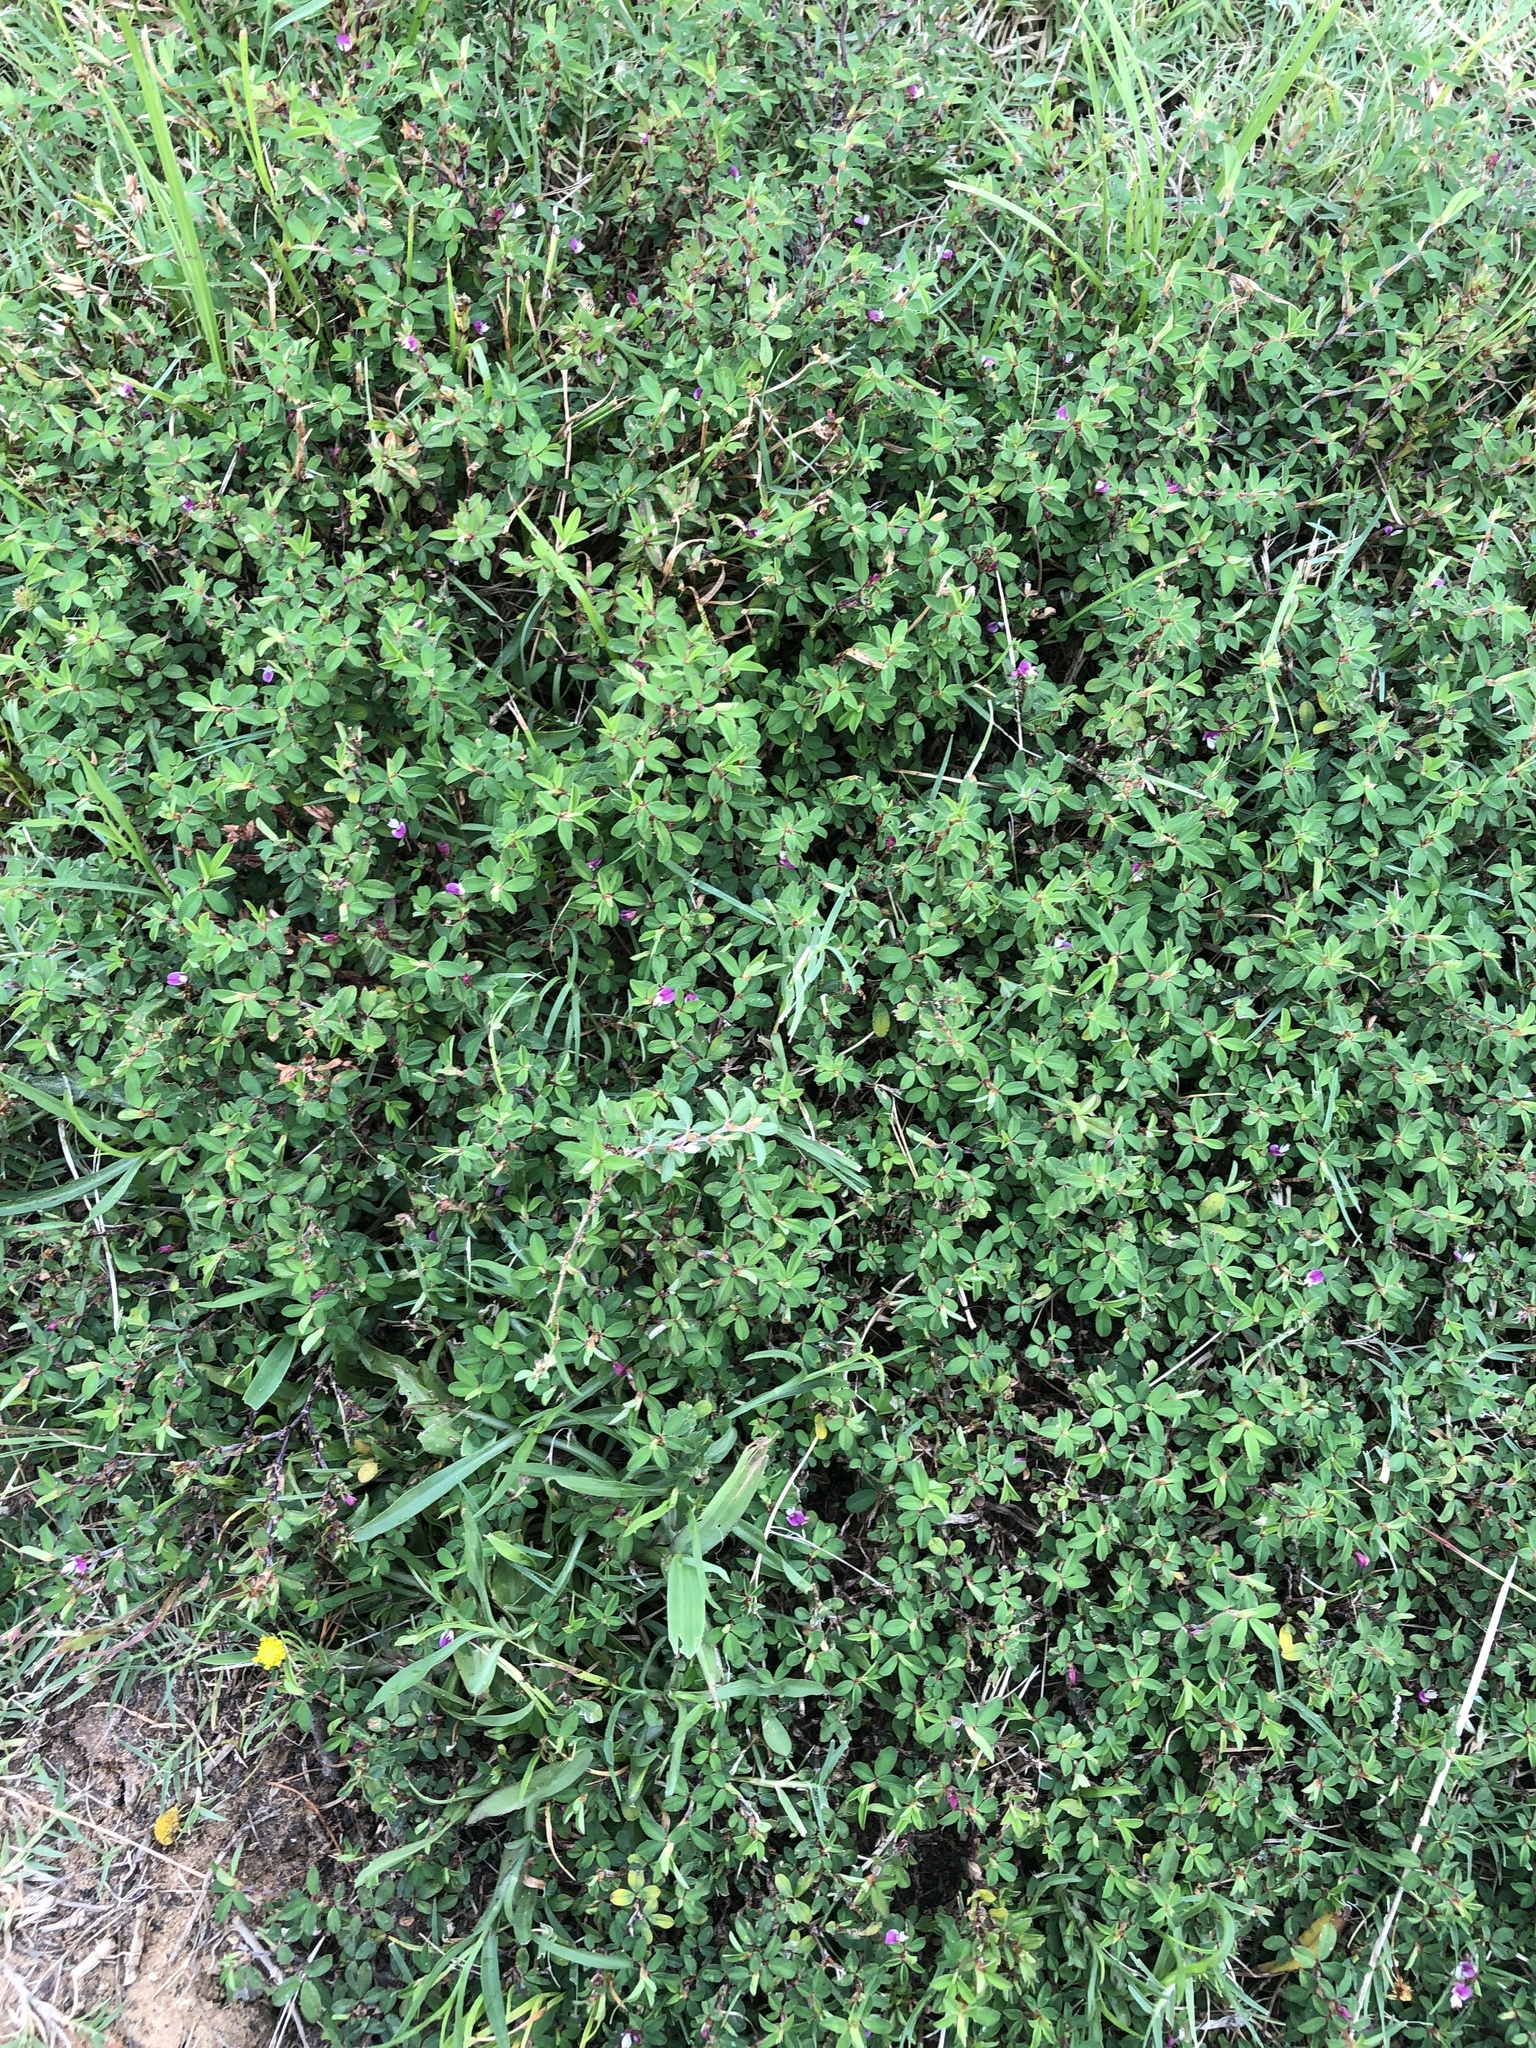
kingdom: Plantae
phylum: Tracheophyta
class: Magnoliopsida
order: Fabales
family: Fabaceae
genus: Kummerowia
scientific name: Kummerowia striata
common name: Japanese clover
